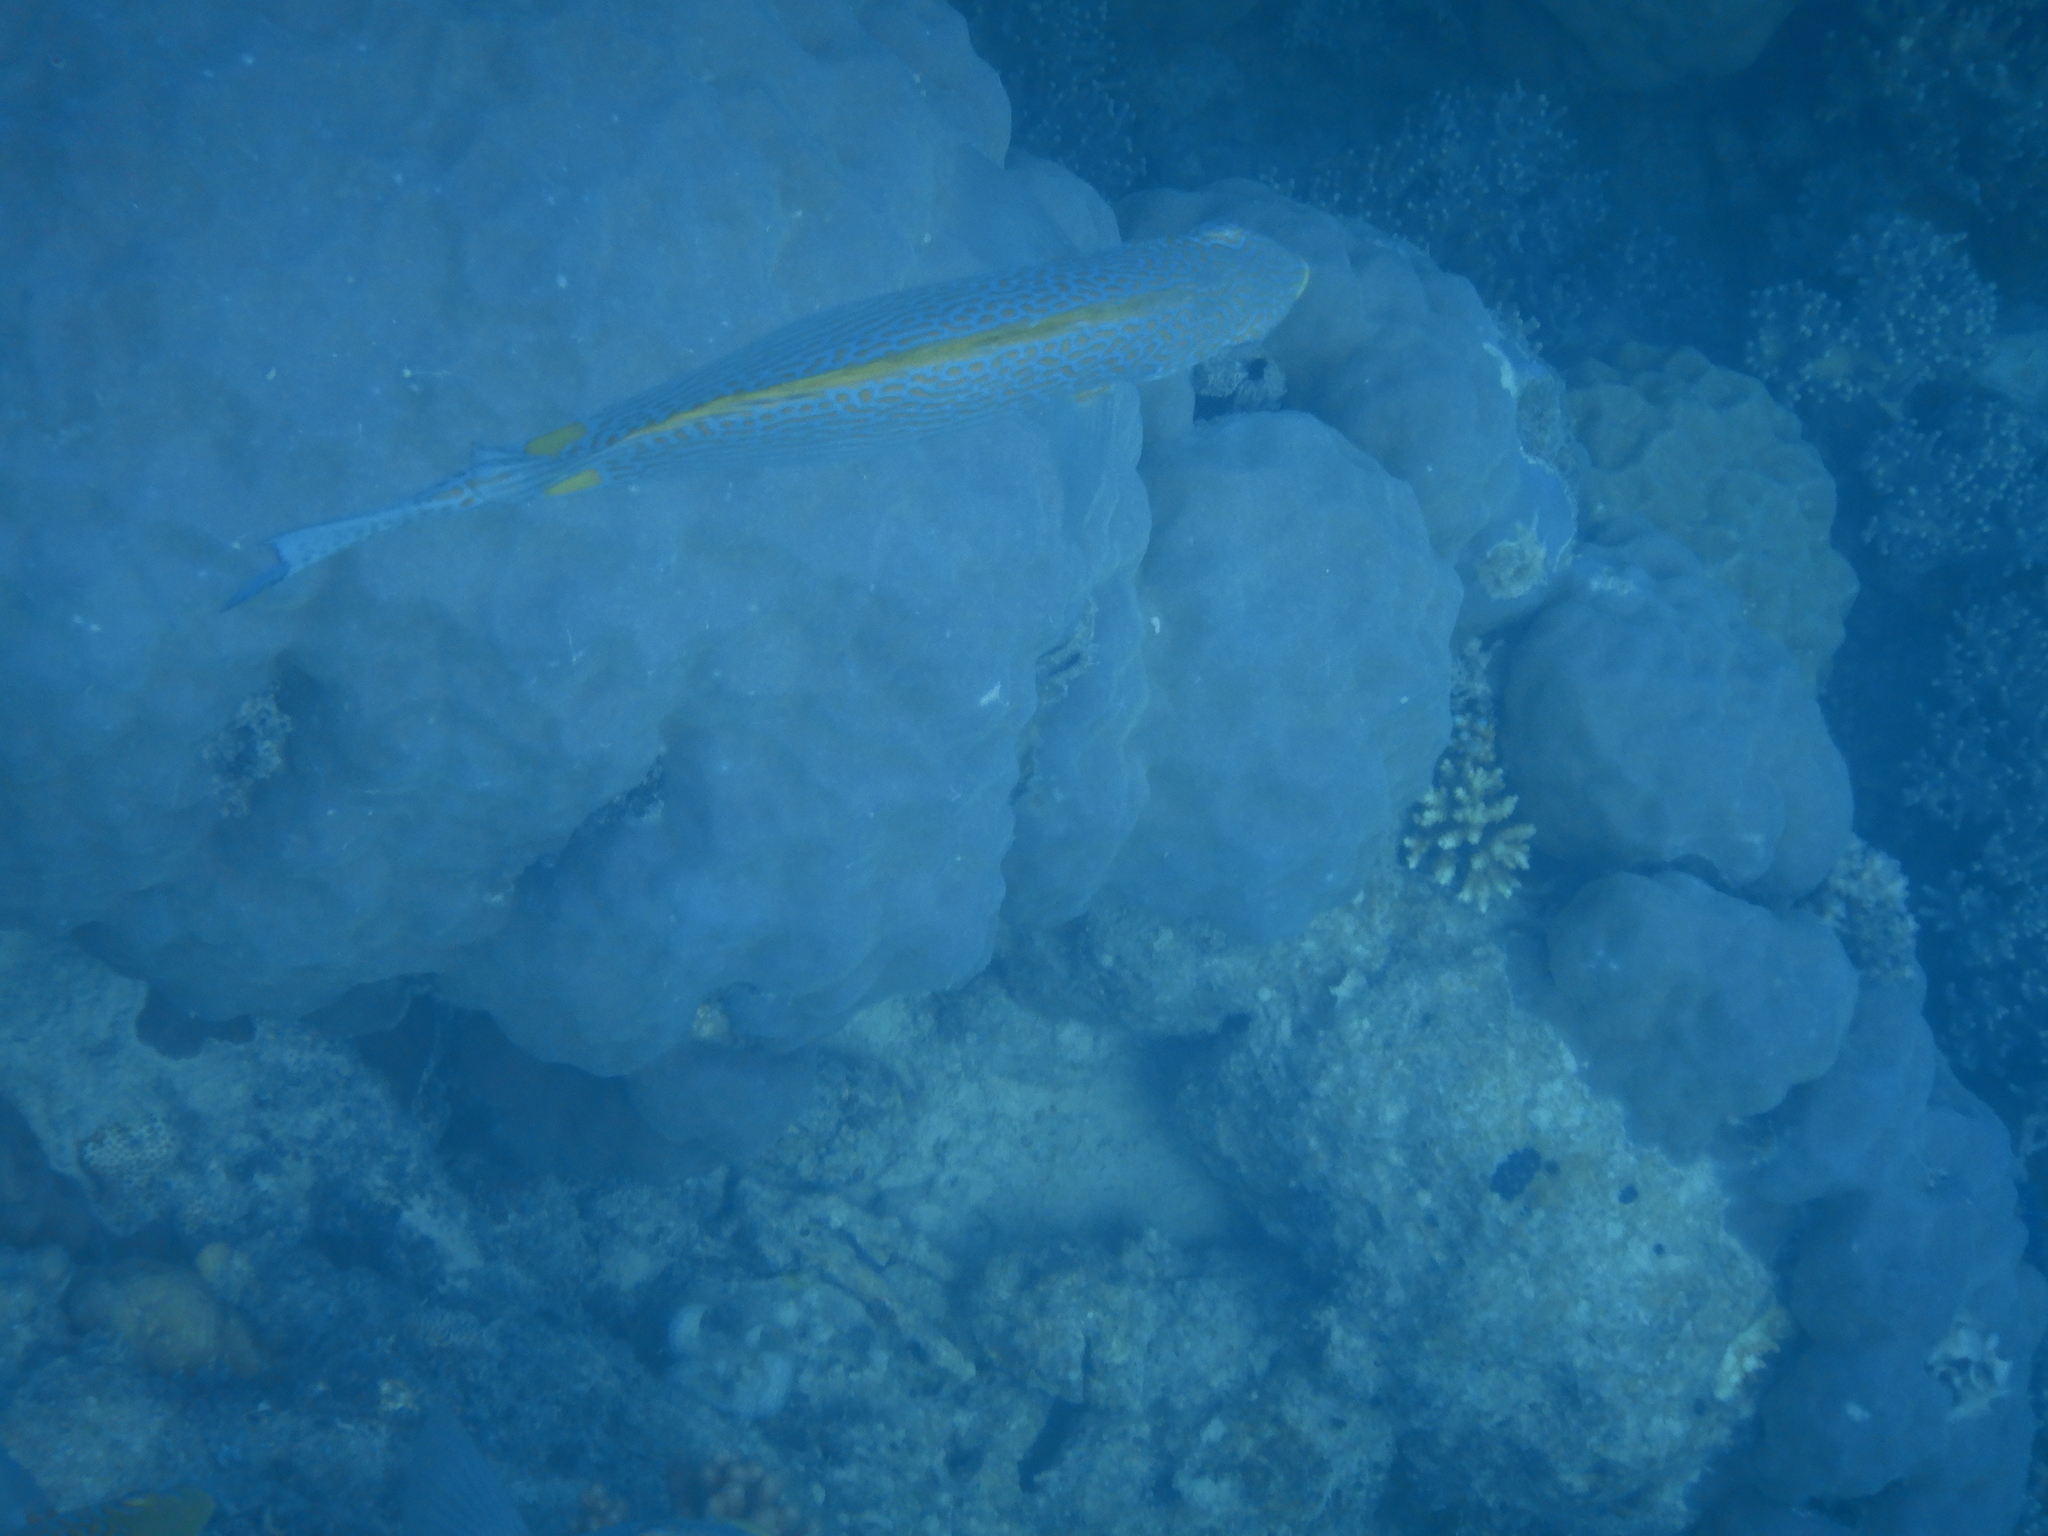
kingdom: Animalia
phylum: Chordata
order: Perciformes
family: Siganidae
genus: Siganus
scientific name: Siganus punctatus
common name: Gold-spotted rabbitfish
